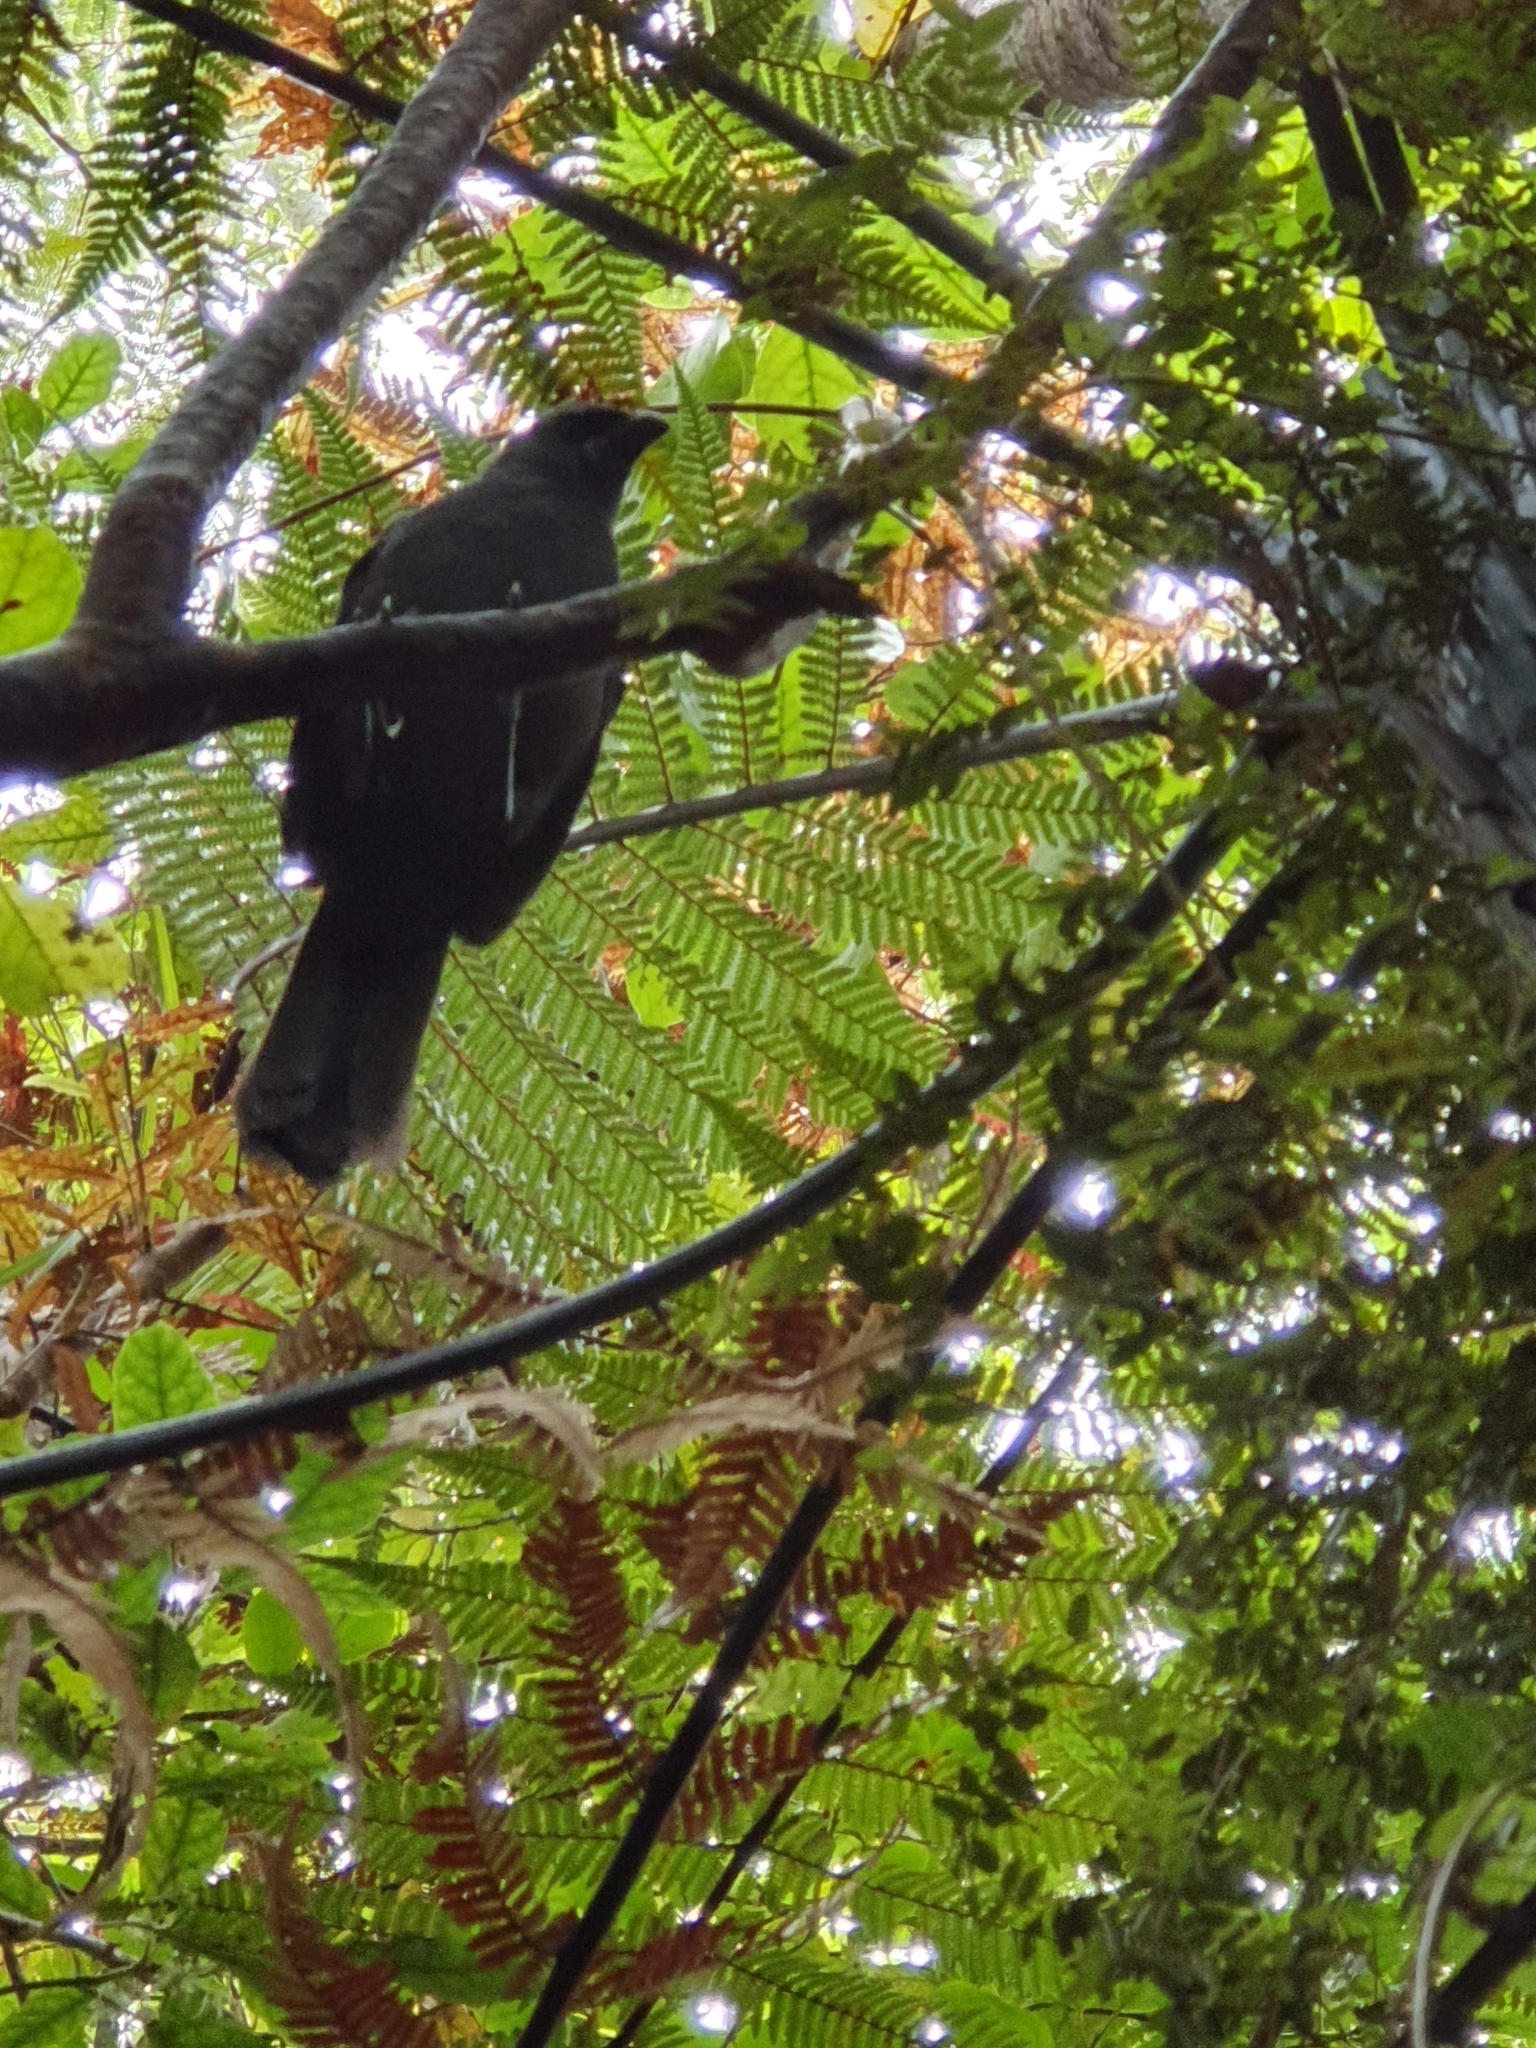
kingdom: Animalia
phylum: Chordata
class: Aves
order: Passeriformes
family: Callaeatidae
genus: Callaeas
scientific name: Callaeas cinereus
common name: South island kokako
